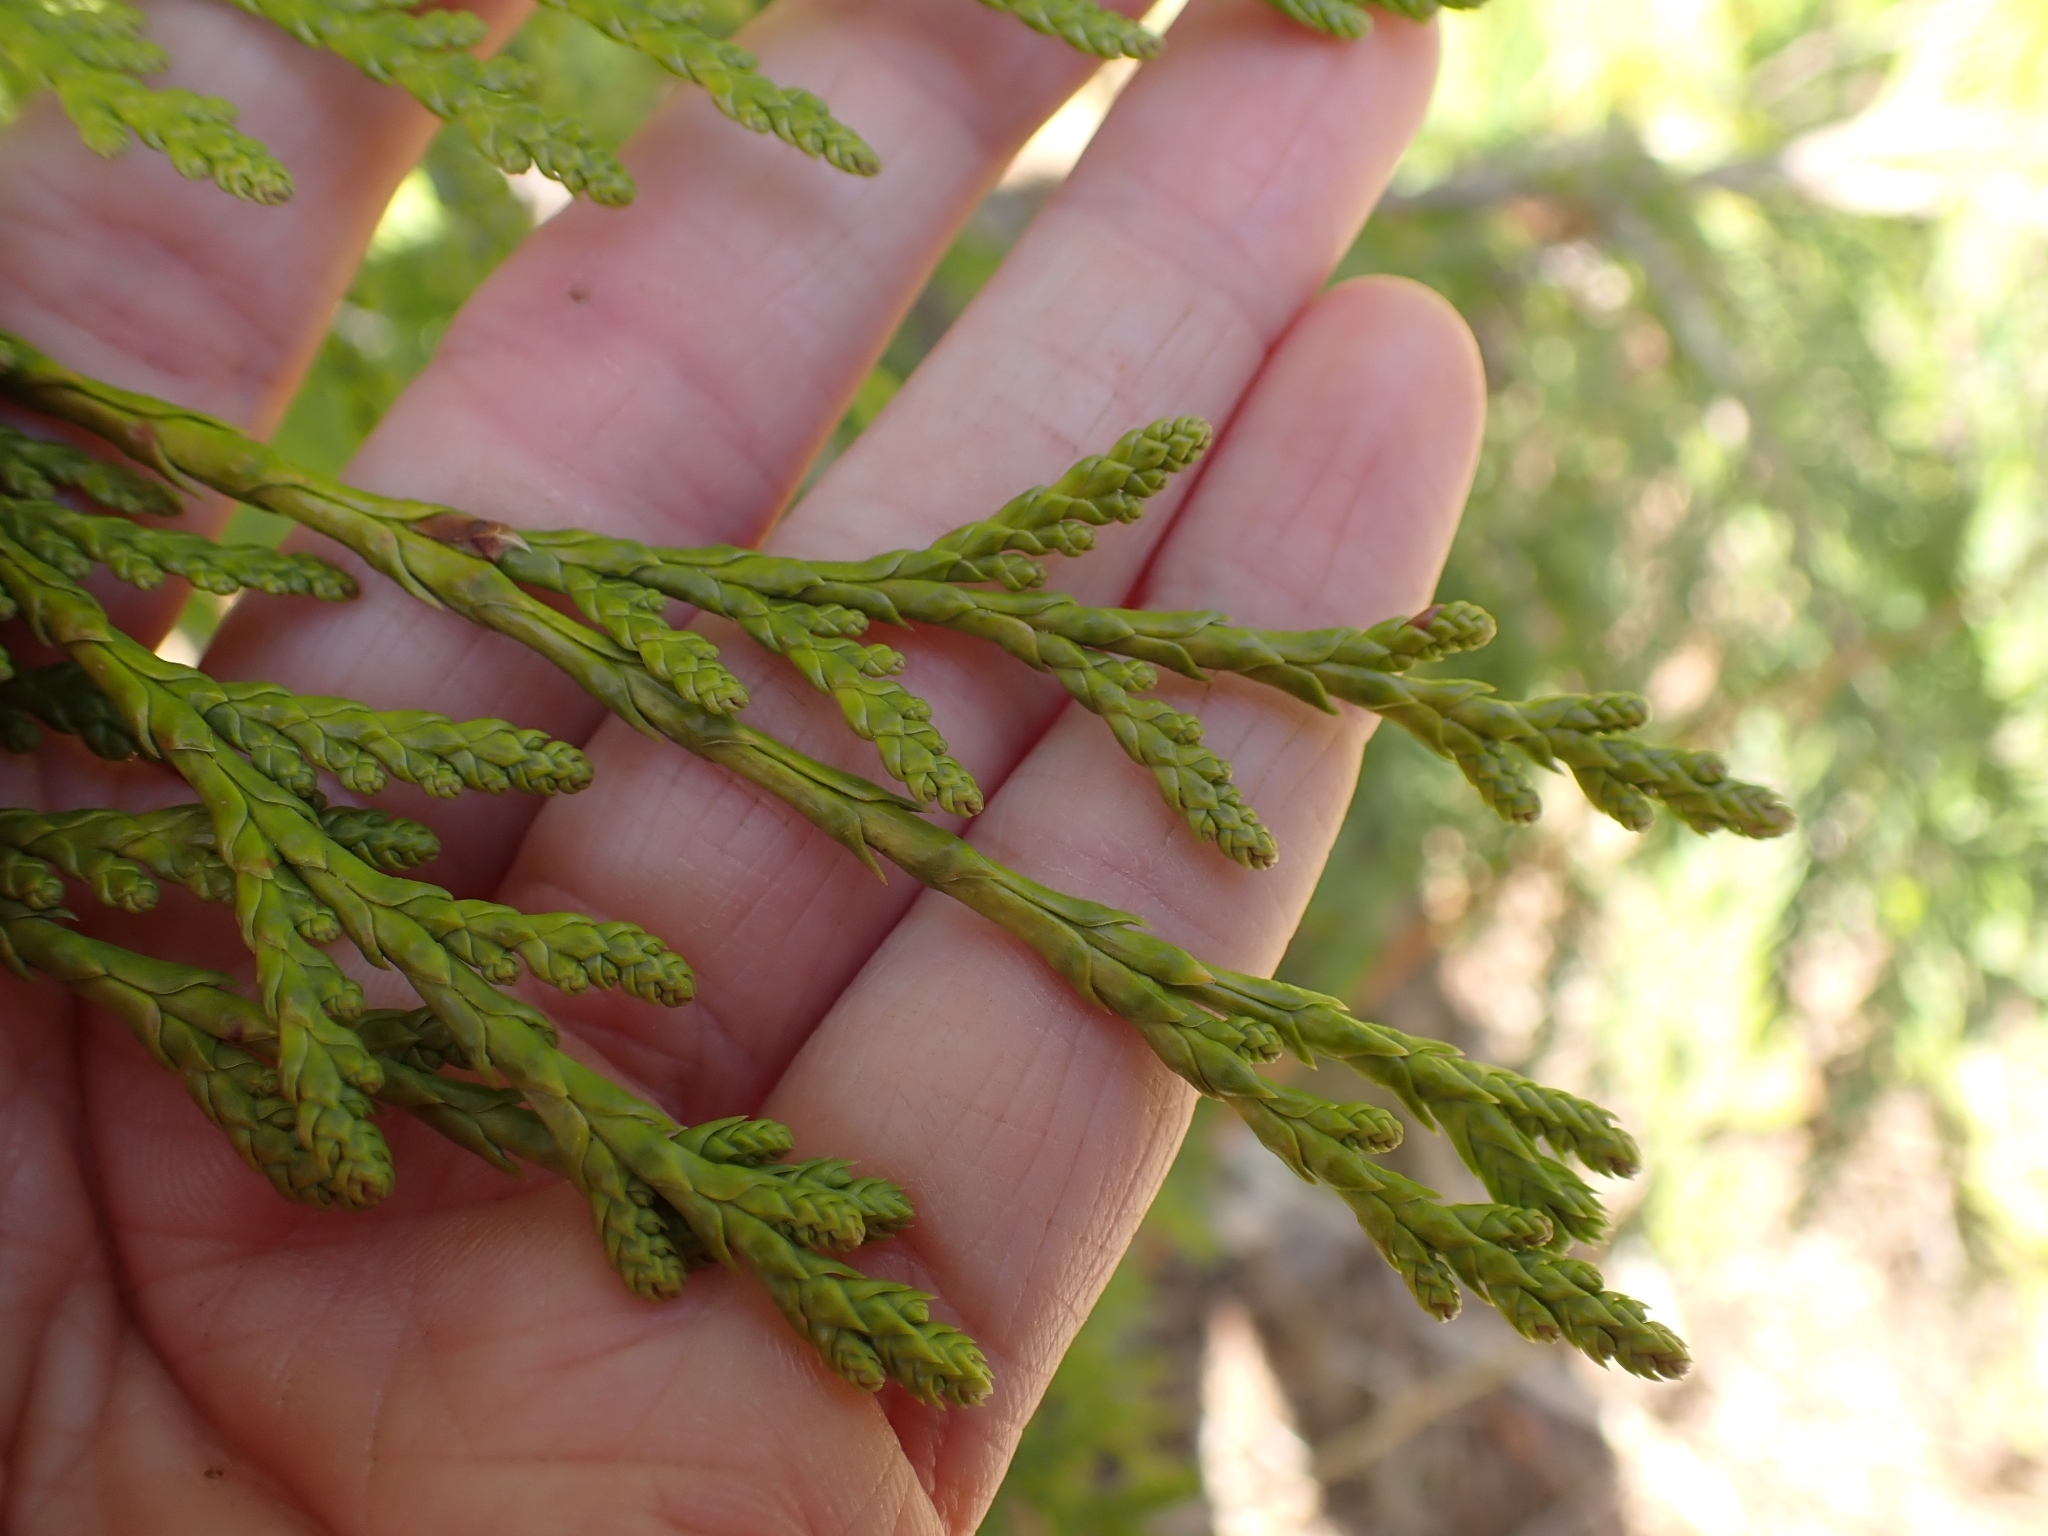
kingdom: Plantae
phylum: Tracheophyta
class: Pinopsida
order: Pinales
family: Cupressaceae
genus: Thuja
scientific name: Thuja plicata
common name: Western red-cedar
